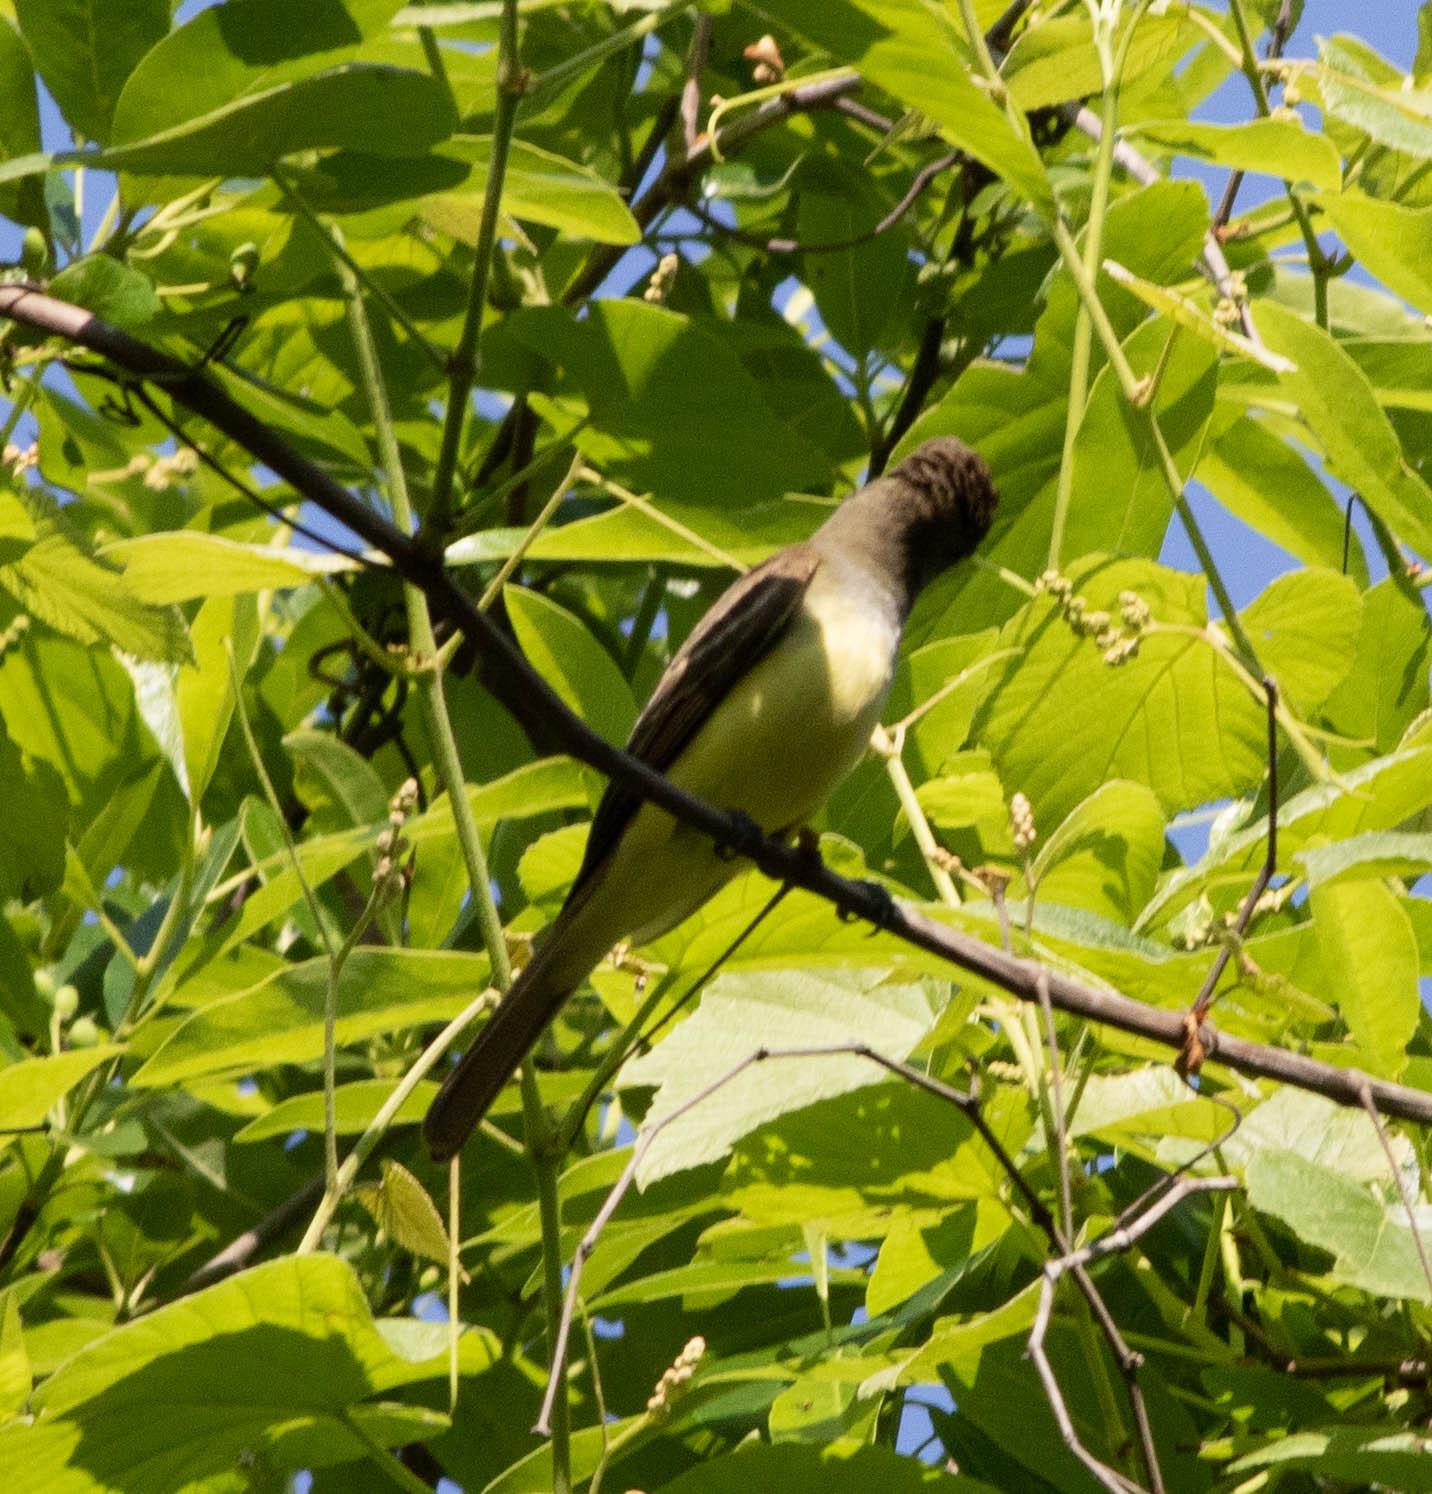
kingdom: Animalia
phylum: Chordata
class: Aves
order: Passeriformes
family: Tyrannidae
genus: Myiarchus
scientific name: Myiarchus crinitus
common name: Great crested flycatcher
